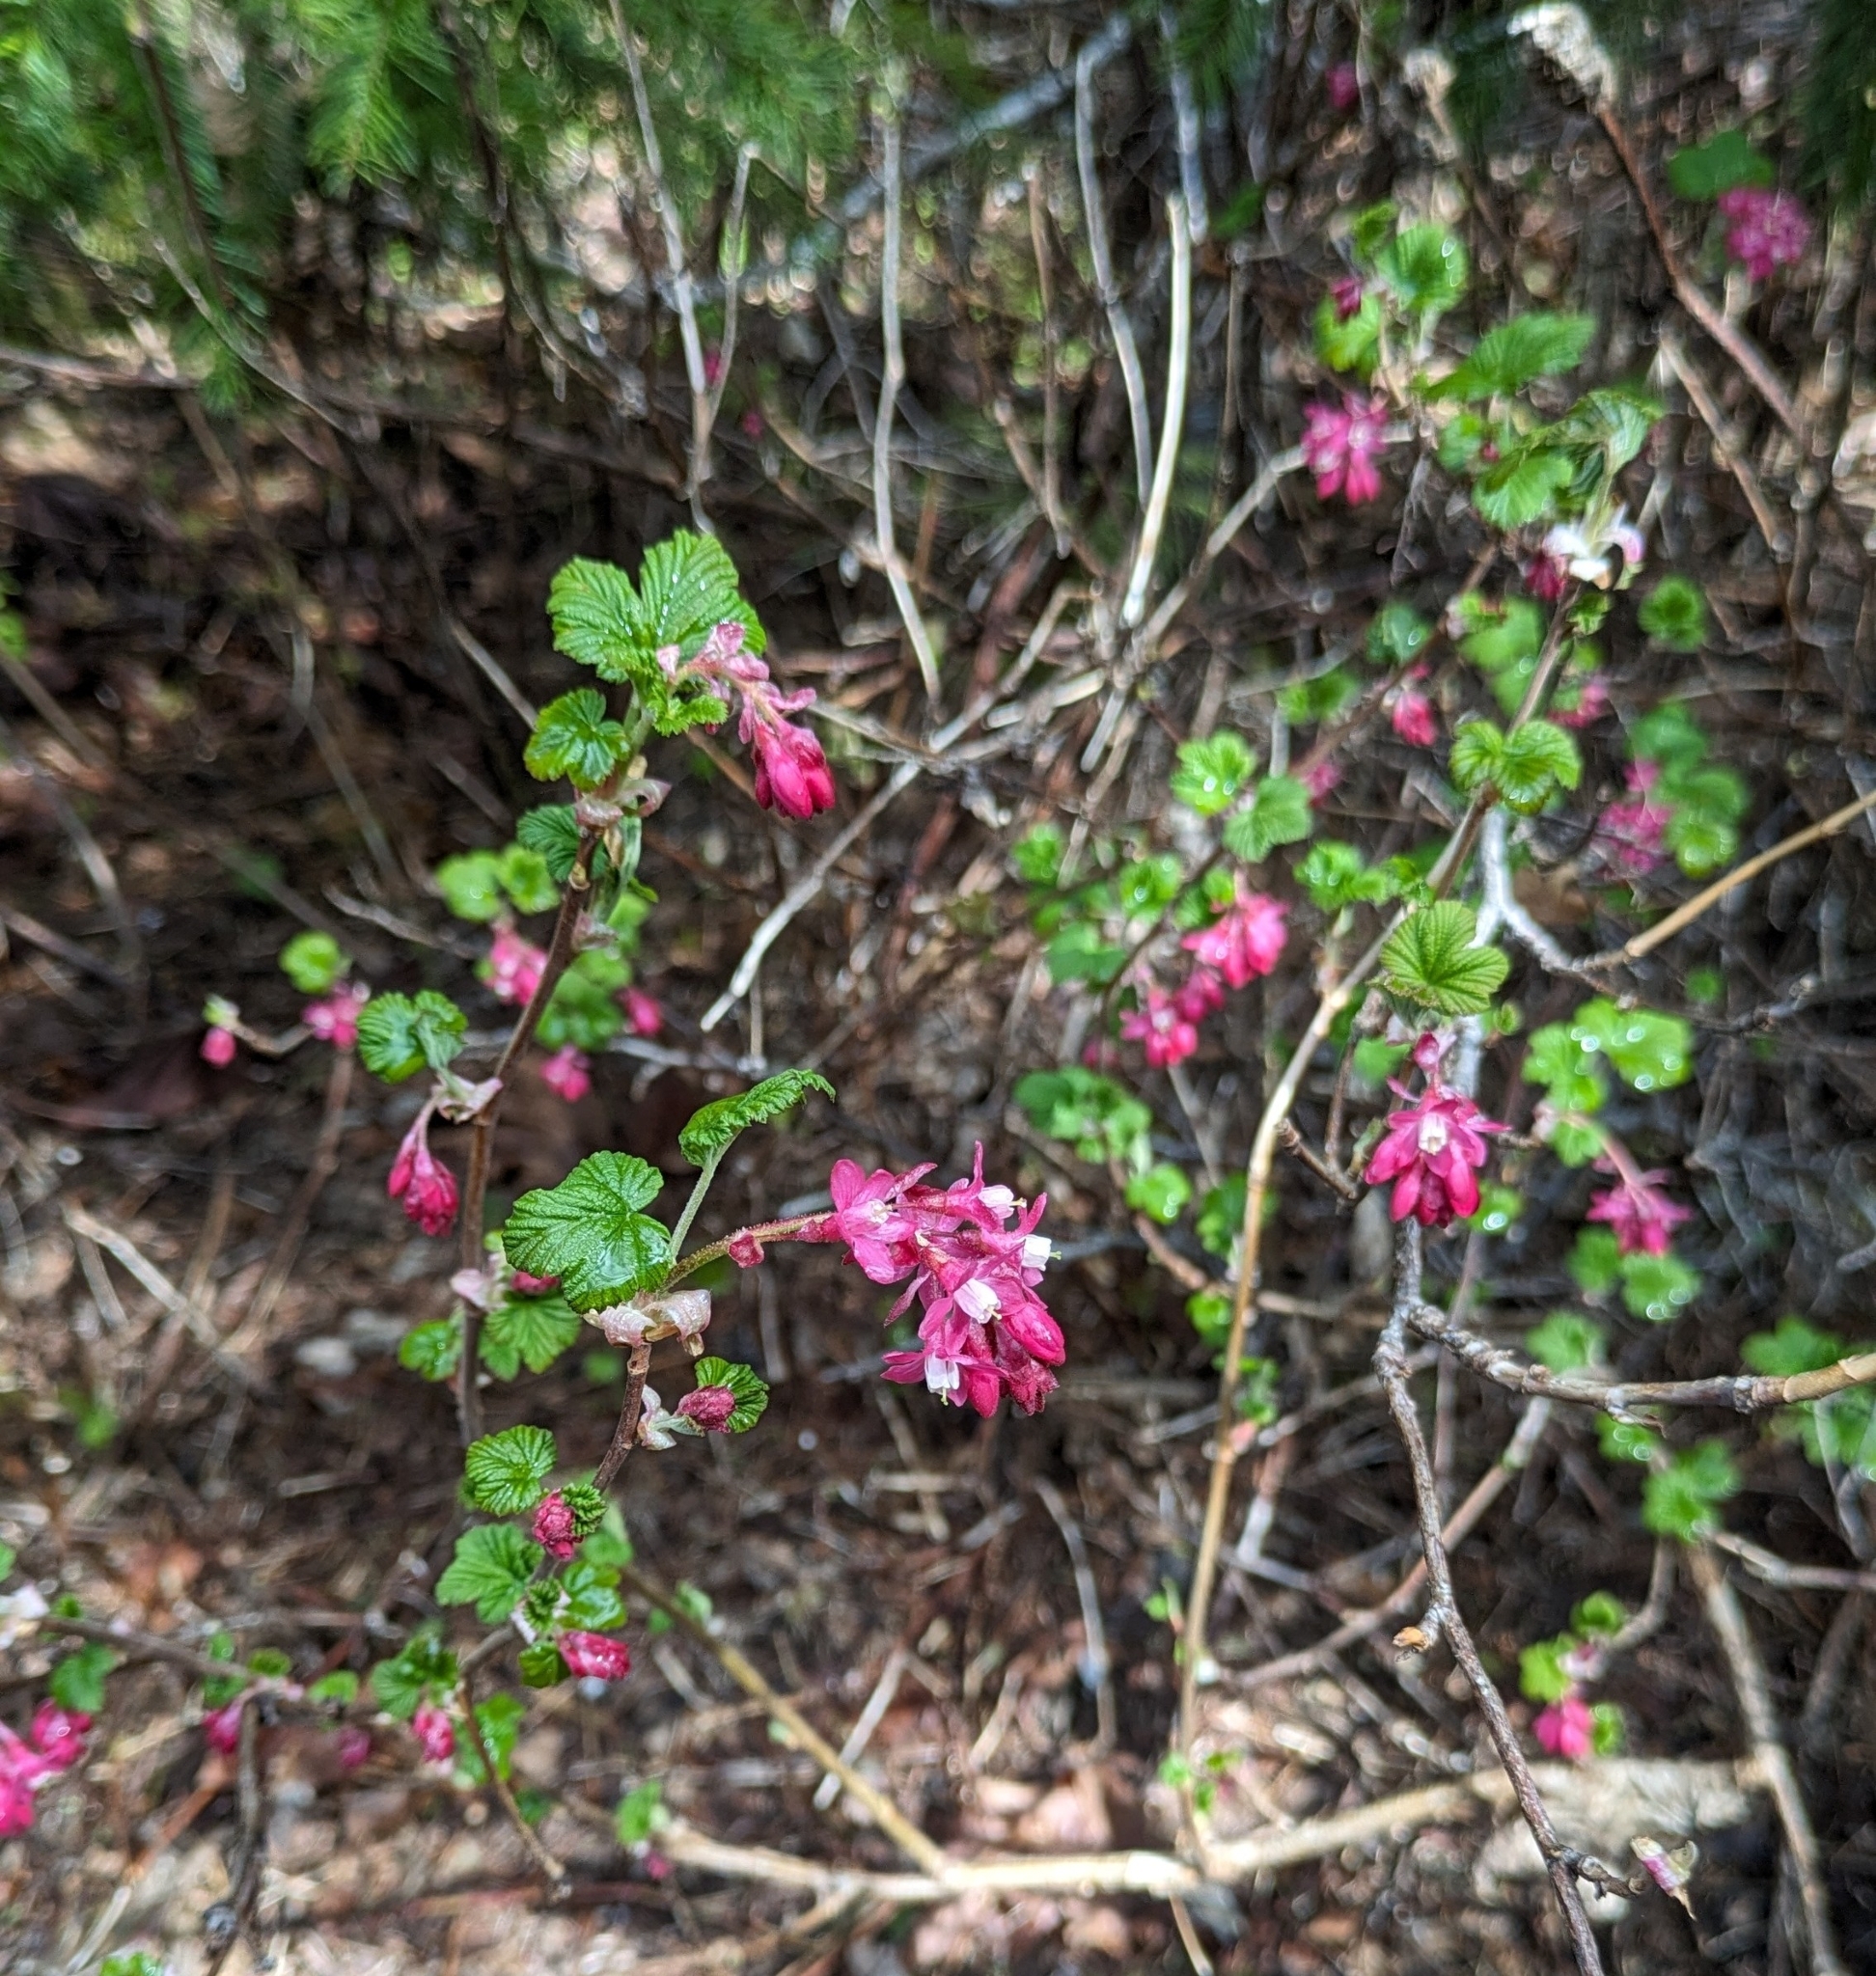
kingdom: Plantae
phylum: Tracheophyta
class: Magnoliopsida
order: Saxifragales
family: Grossulariaceae
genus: Ribes
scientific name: Ribes sanguineum
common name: Flowering currant
